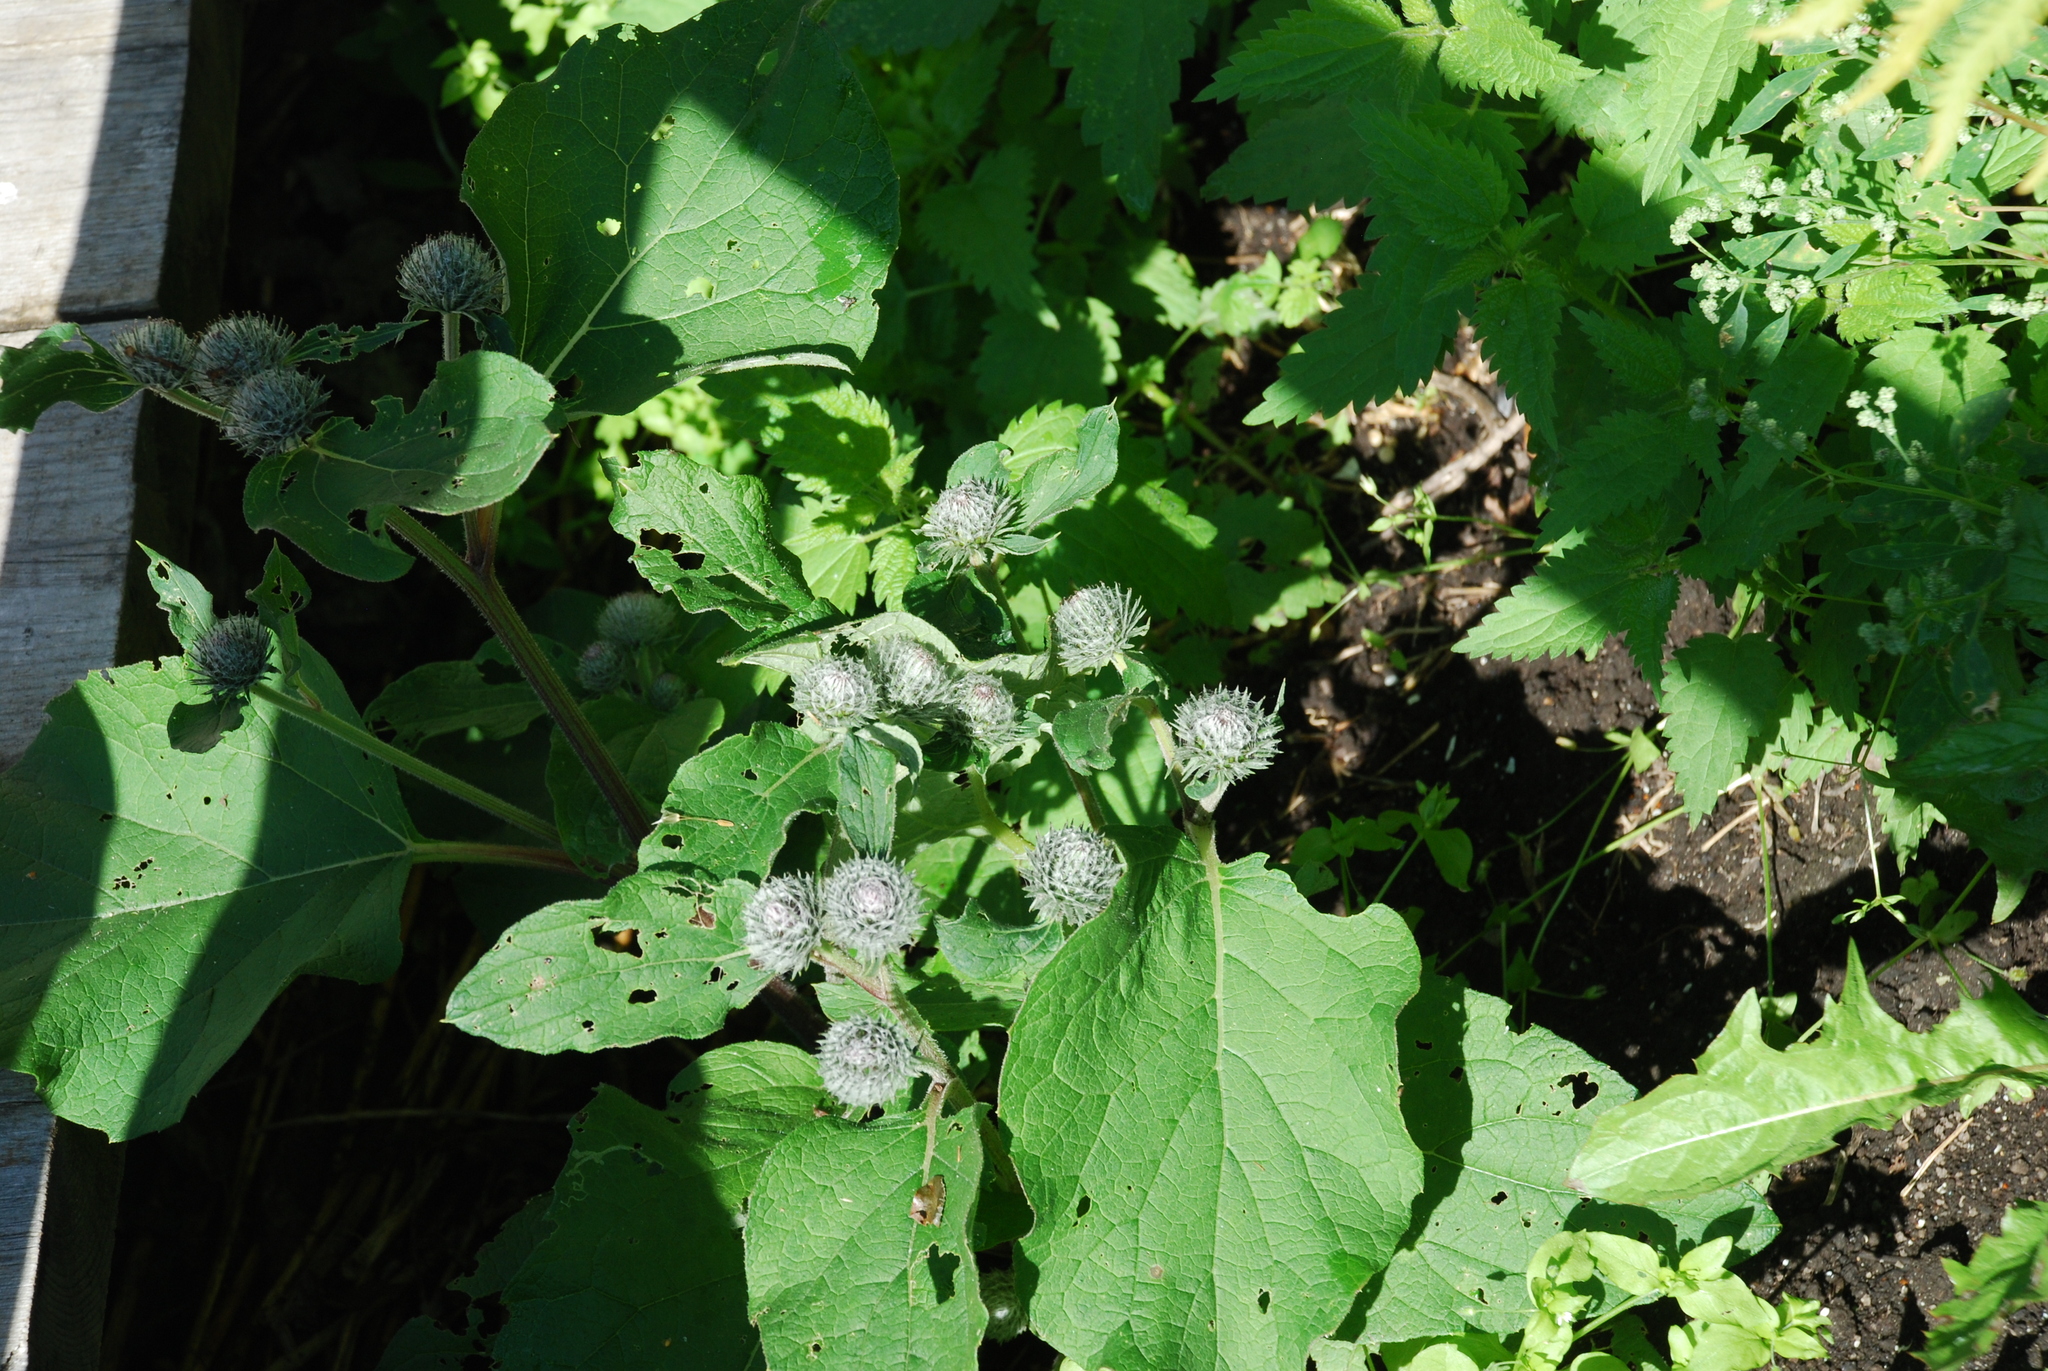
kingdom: Plantae
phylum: Tracheophyta
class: Magnoliopsida
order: Asterales
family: Asteraceae
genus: Arctium
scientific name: Arctium tomentosum
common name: Woolly burdock
